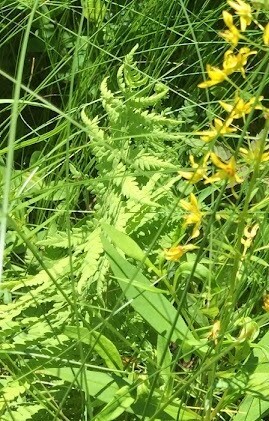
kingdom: Plantae
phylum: Tracheophyta
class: Polypodiopsida
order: Polypodiales
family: Thelypteridaceae
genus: Thelypteris
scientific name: Thelypteris palustris
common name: Marsh fern
